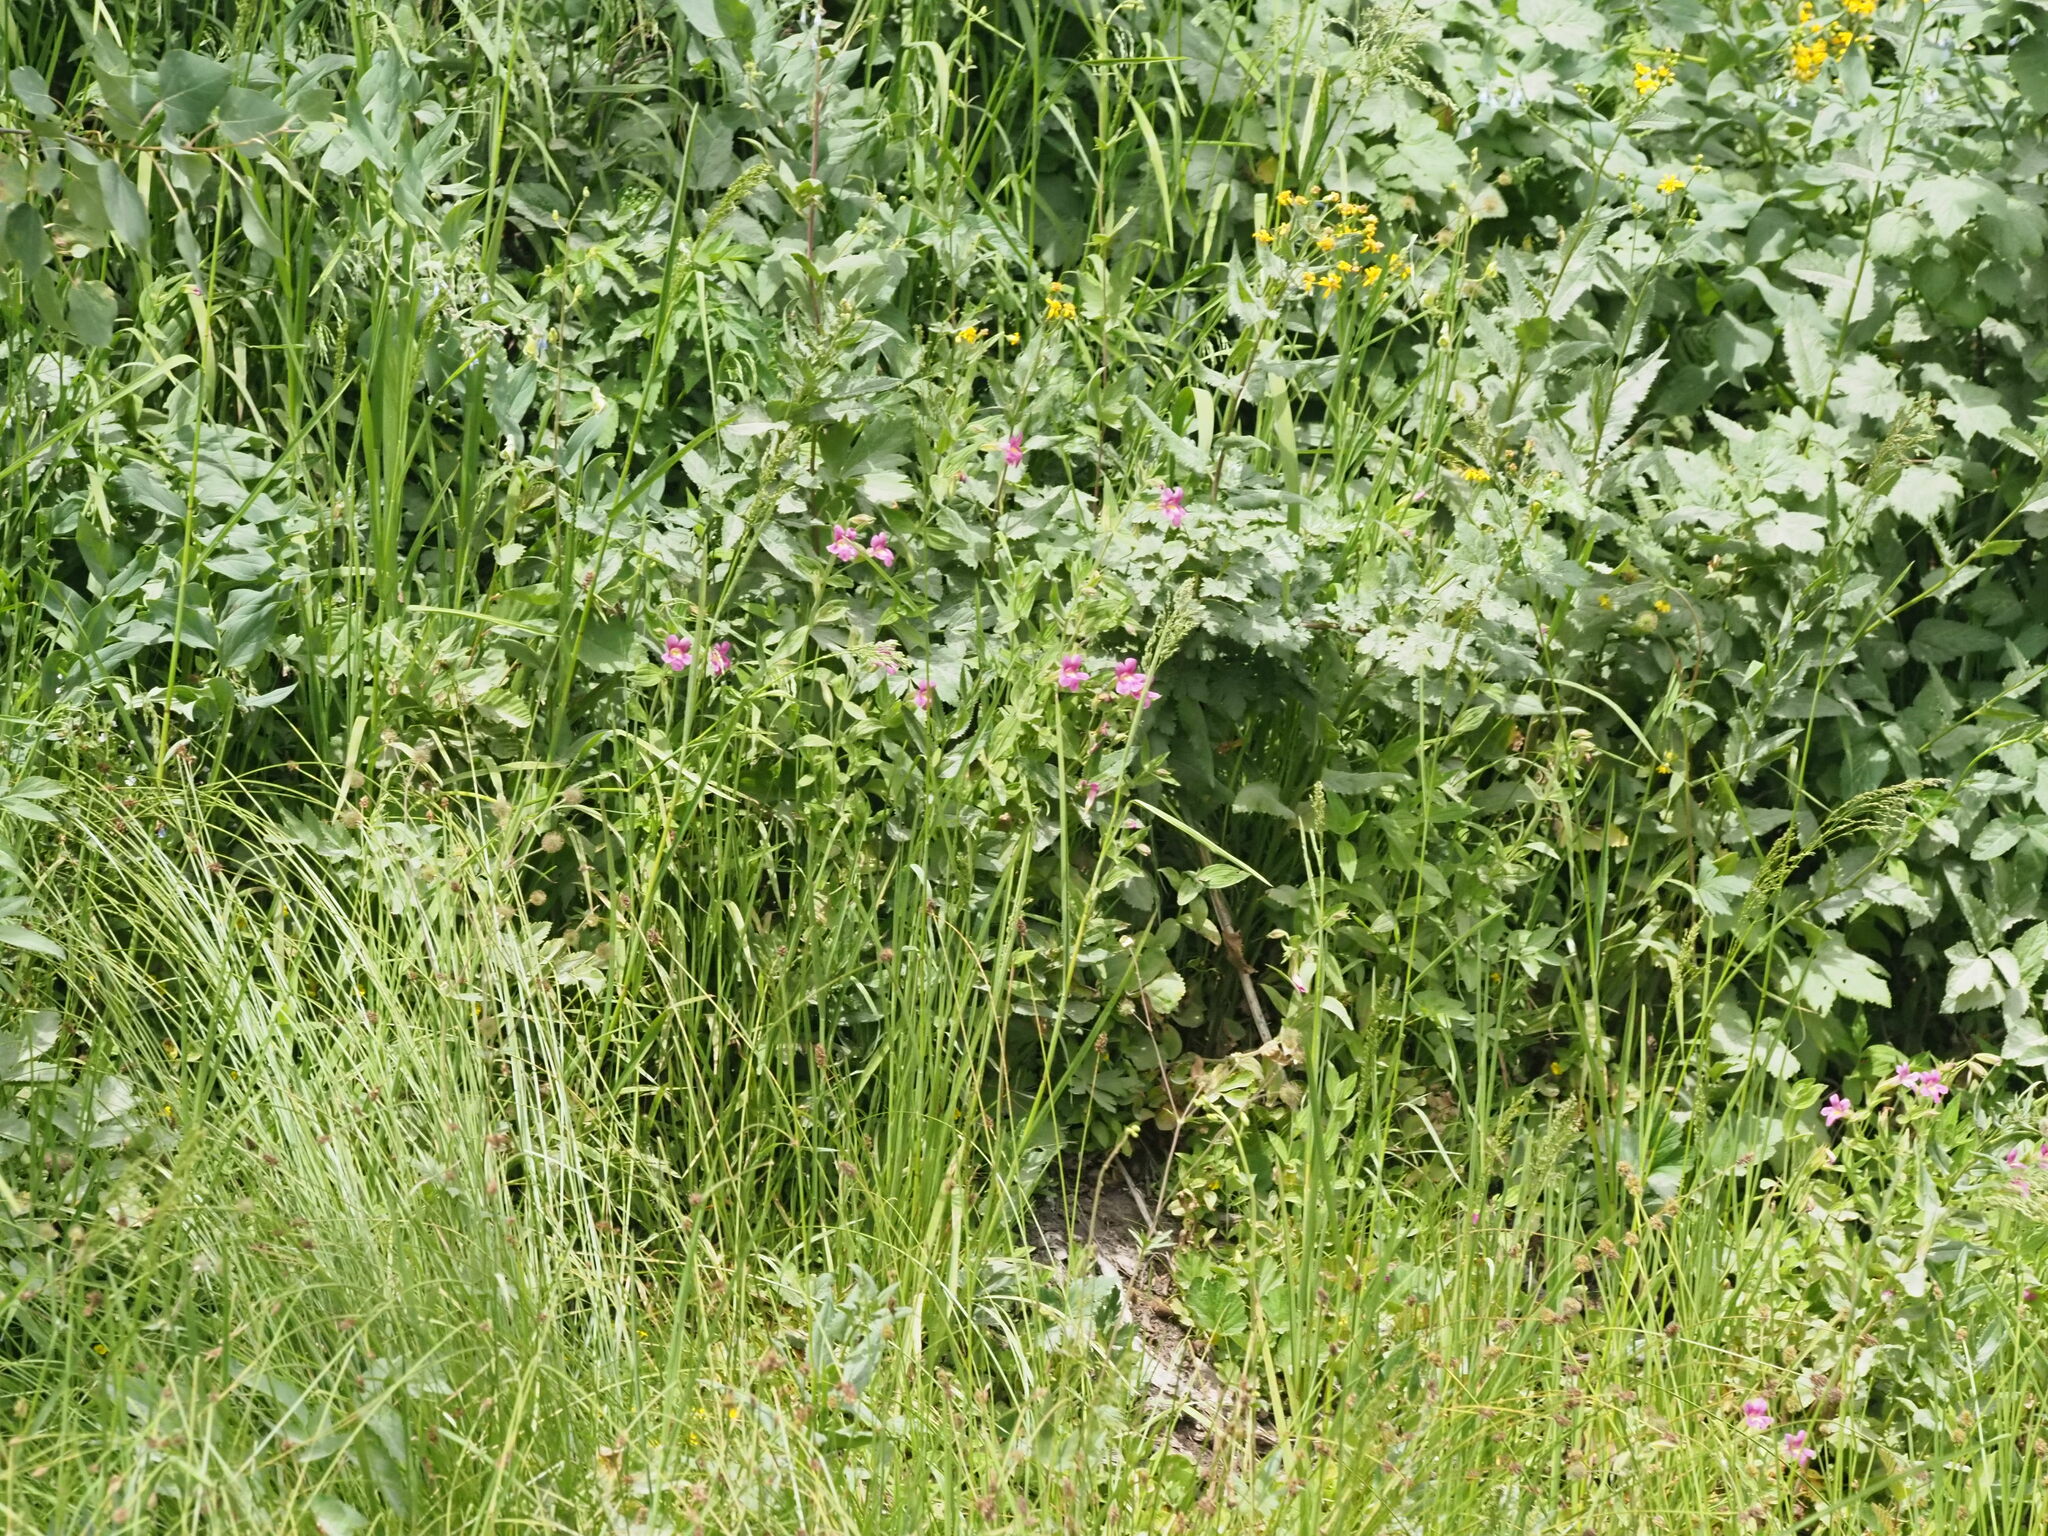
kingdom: Plantae
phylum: Tracheophyta
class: Magnoliopsida
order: Lamiales
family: Phrymaceae
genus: Erythranthe
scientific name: Erythranthe lewisii
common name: Lewis's monkey-flower
